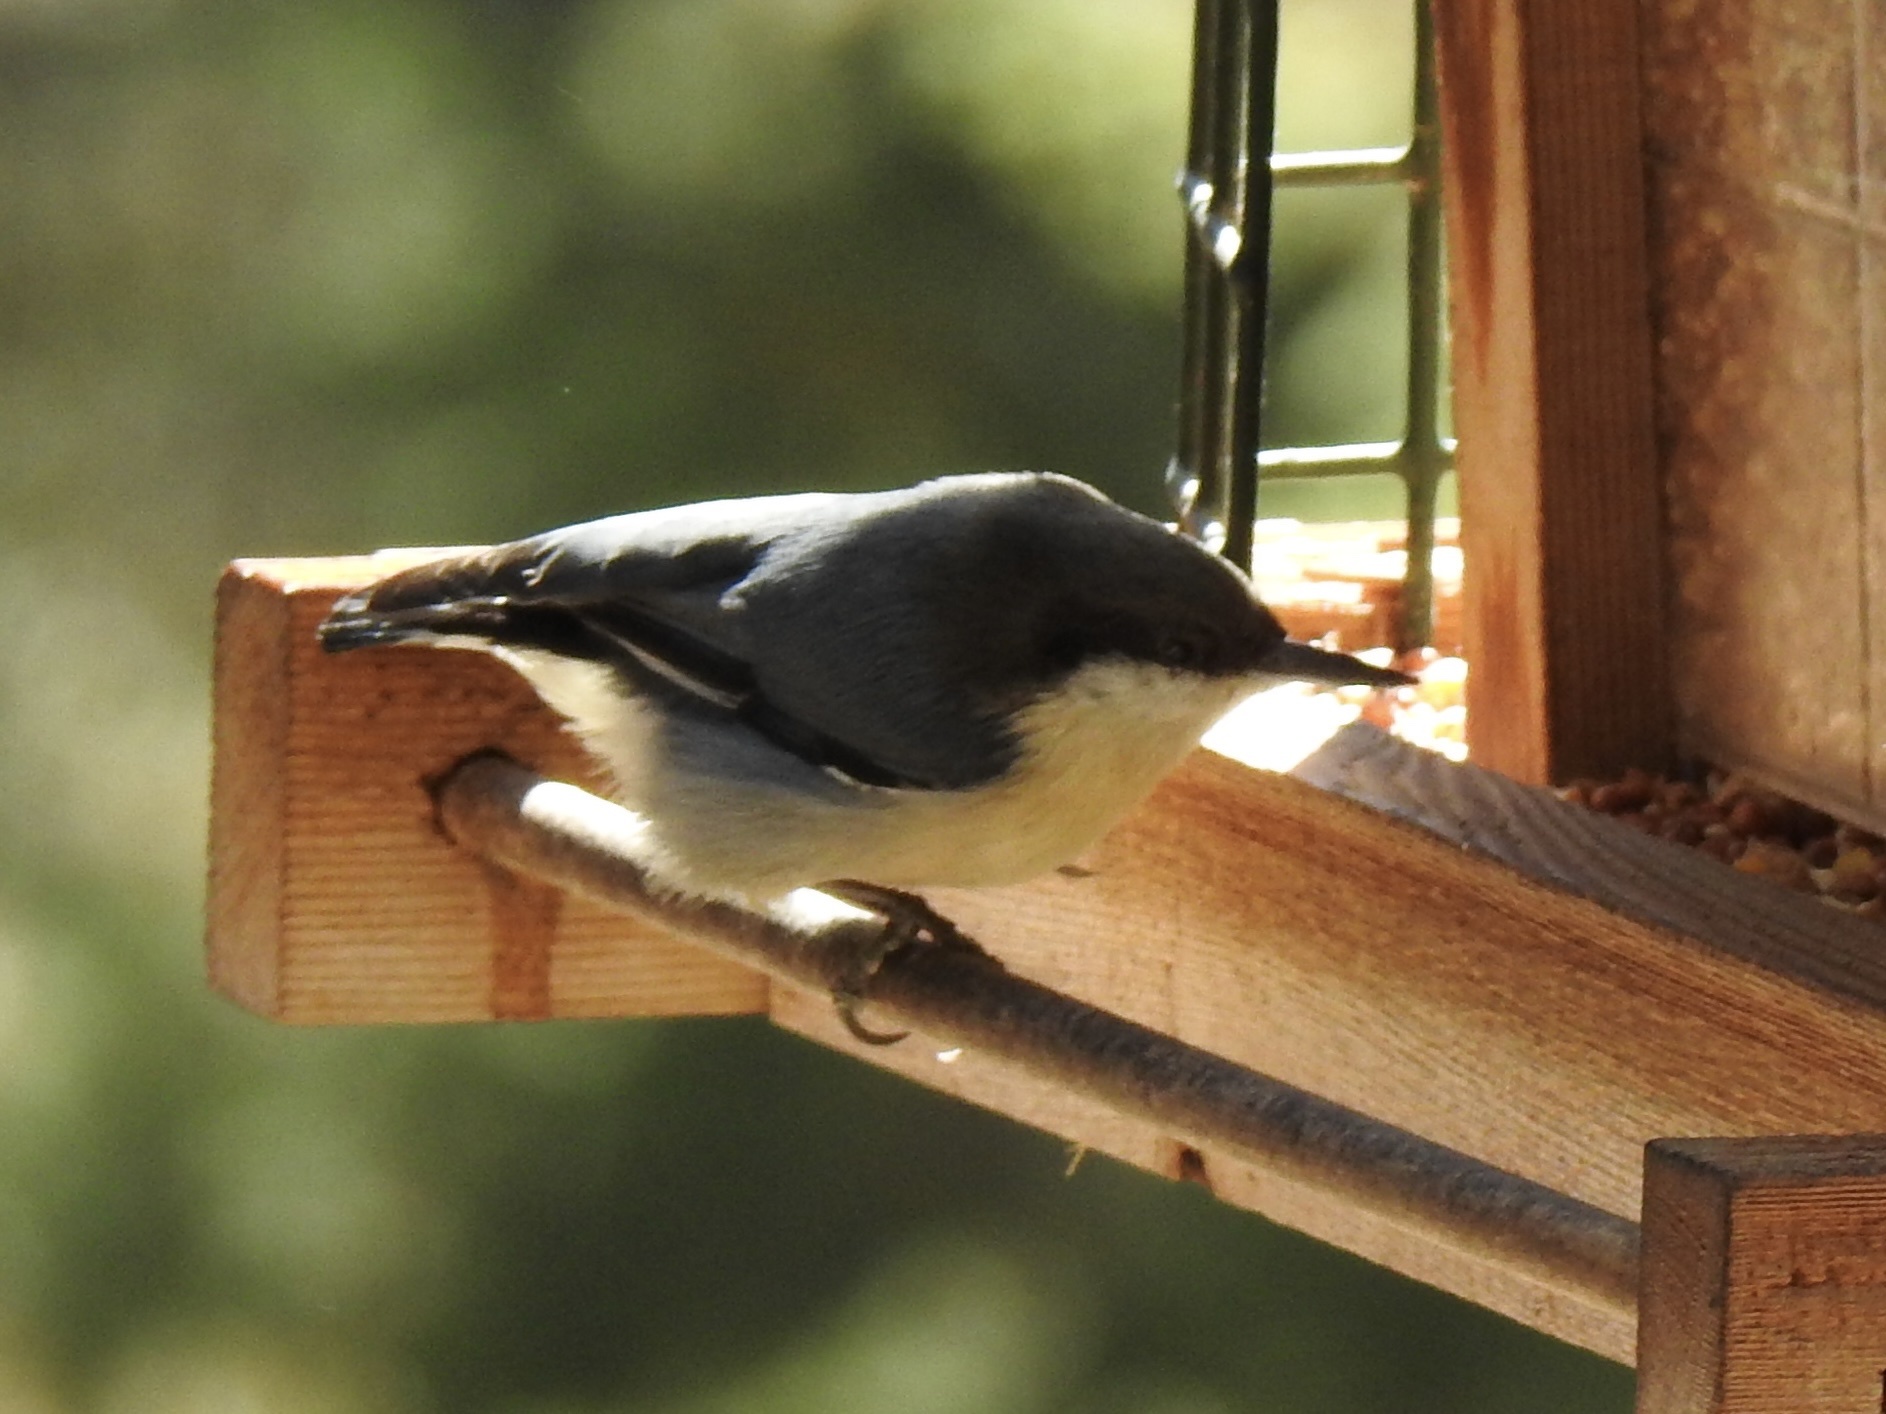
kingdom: Animalia
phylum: Chordata
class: Aves
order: Passeriformes
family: Sittidae
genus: Sitta
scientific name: Sitta pygmaea
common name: Pygmy nuthatch
